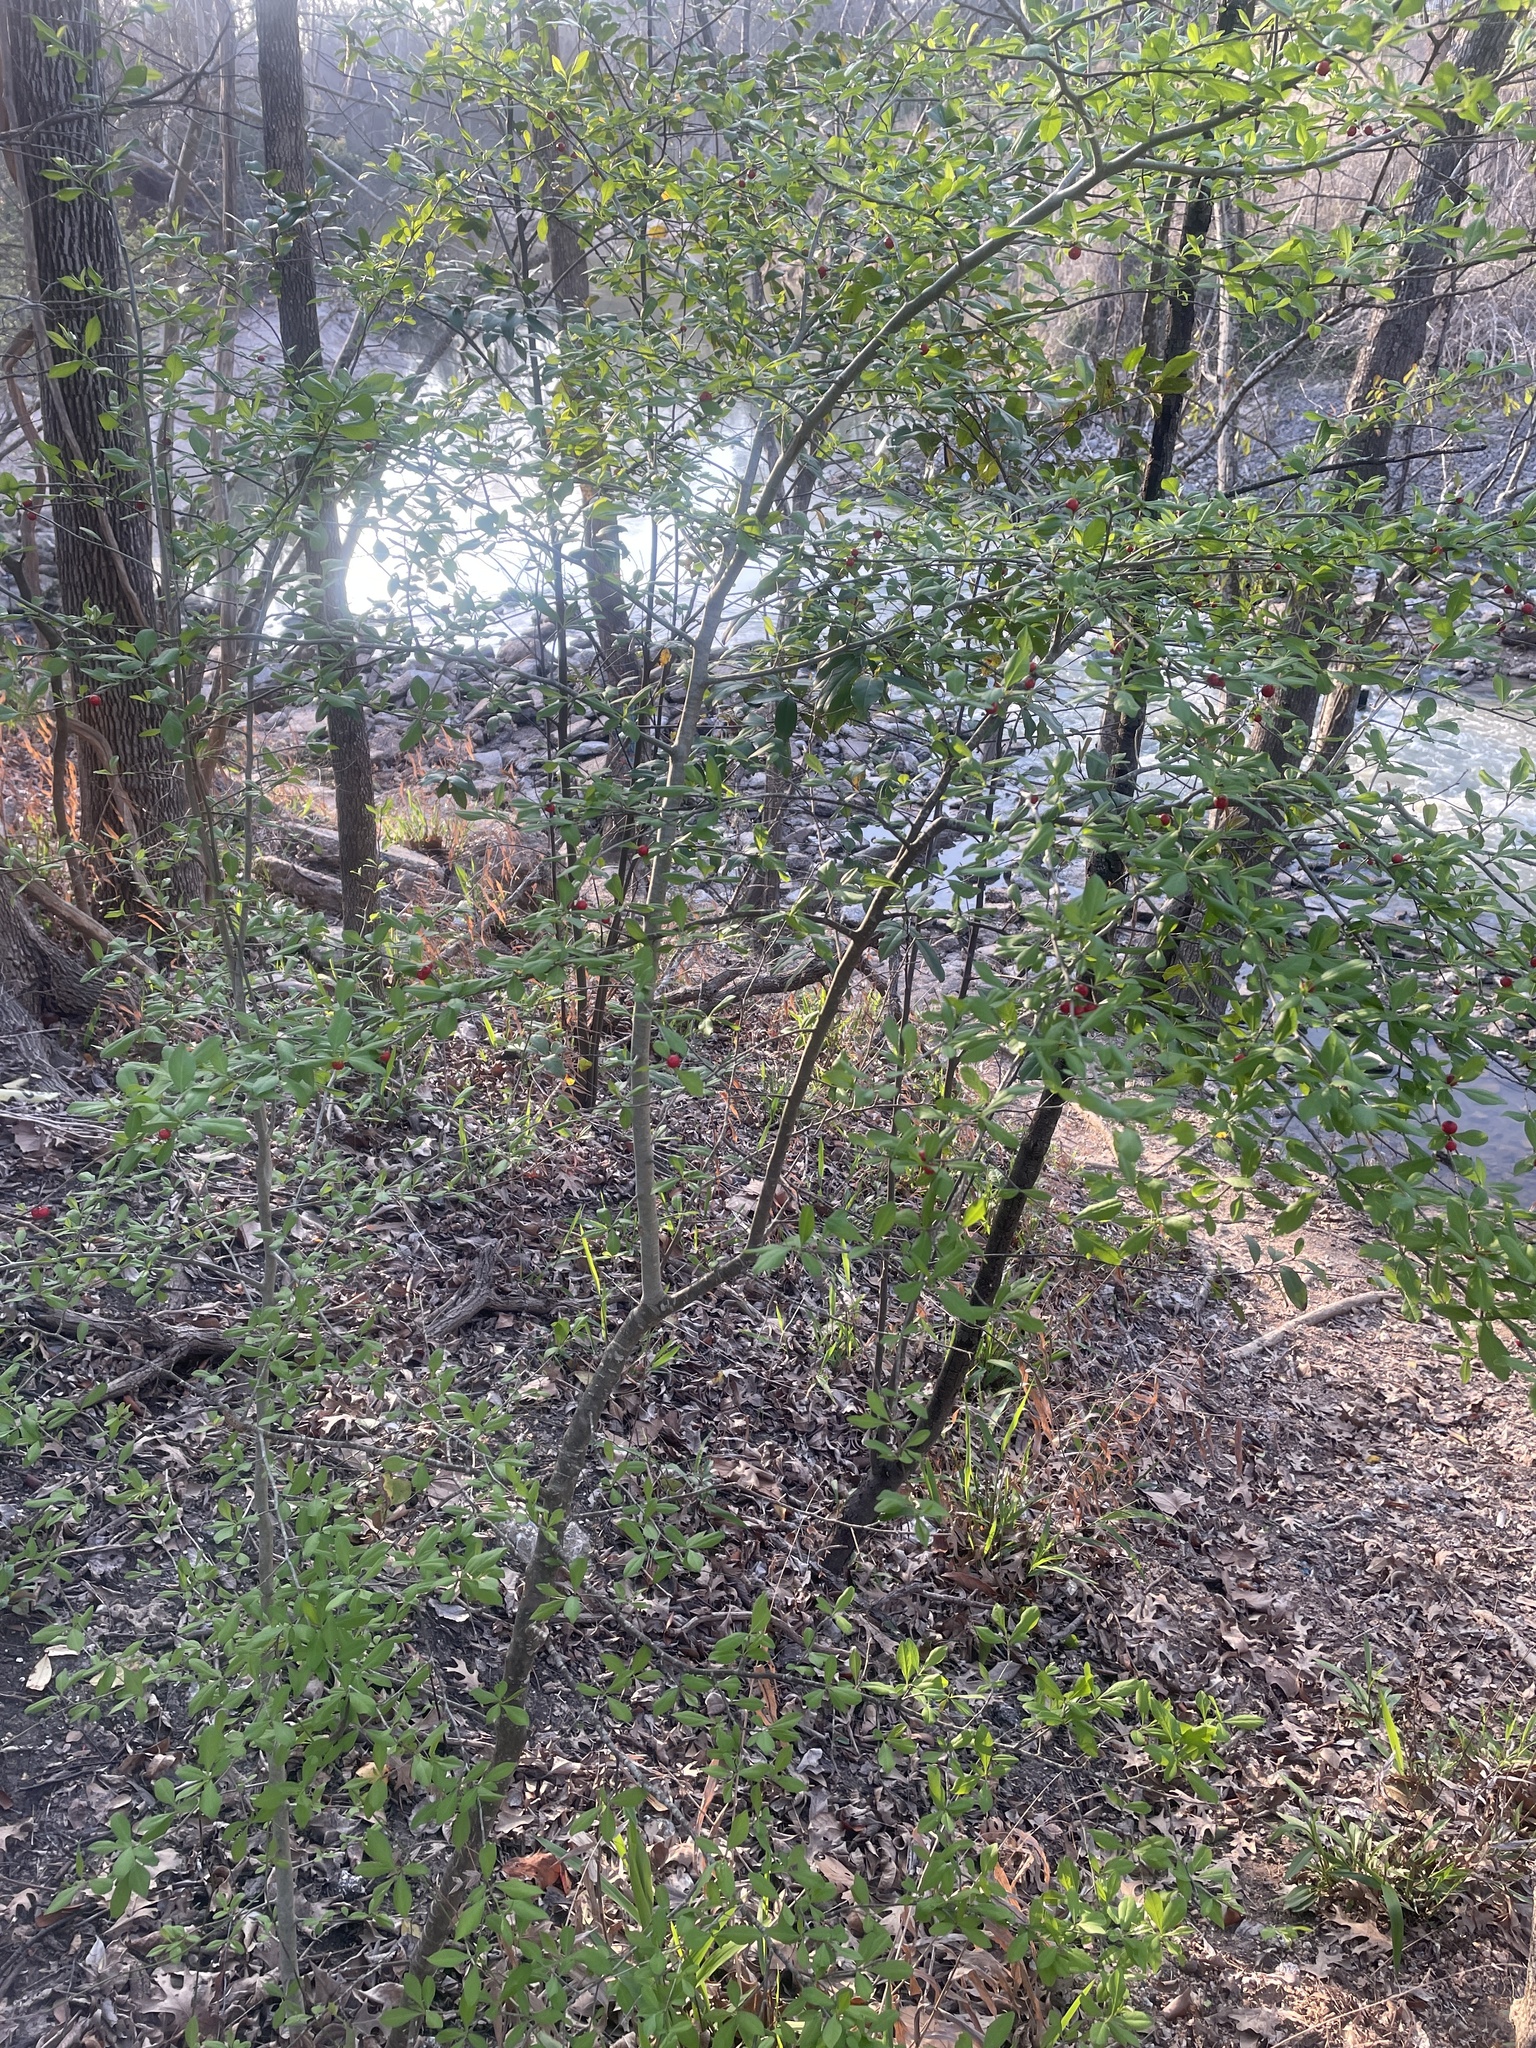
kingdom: Plantae
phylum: Tracheophyta
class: Magnoliopsida
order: Aquifoliales
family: Aquifoliaceae
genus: Ilex
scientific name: Ilex vomitoria
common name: Yaupon holly
